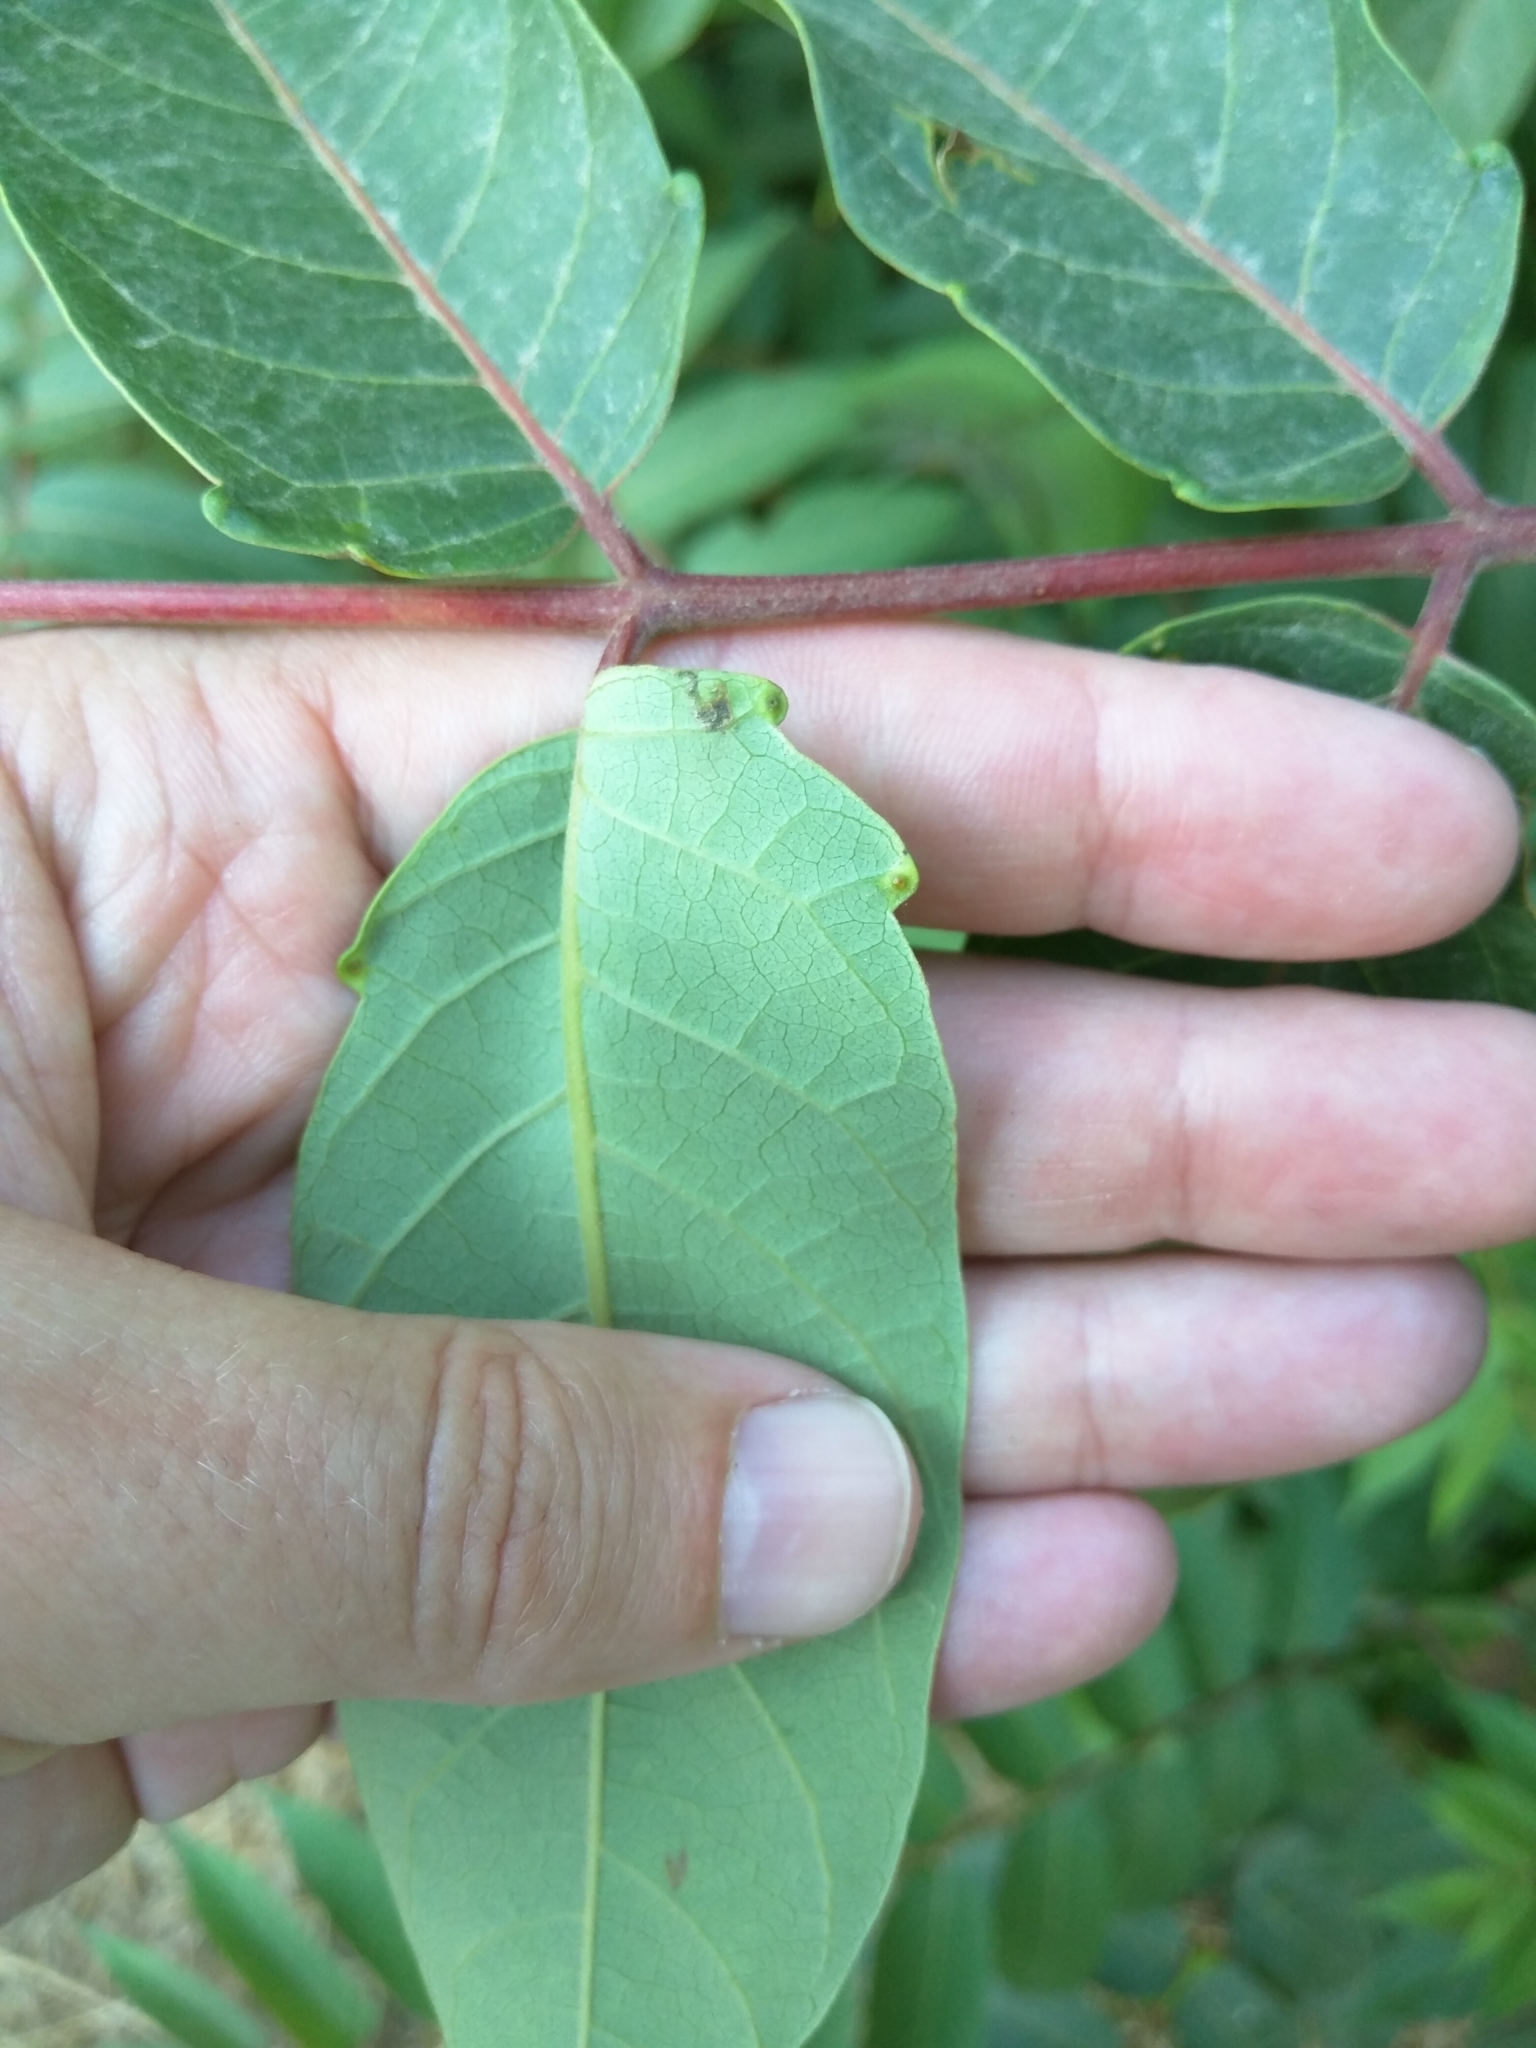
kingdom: Plantae
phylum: Tracheophyta
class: Magnoliopsida
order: Sapindales
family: Simaroubaceae
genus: Ailanthus
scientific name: Ailanthus altissima
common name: Tree-of-heaven
